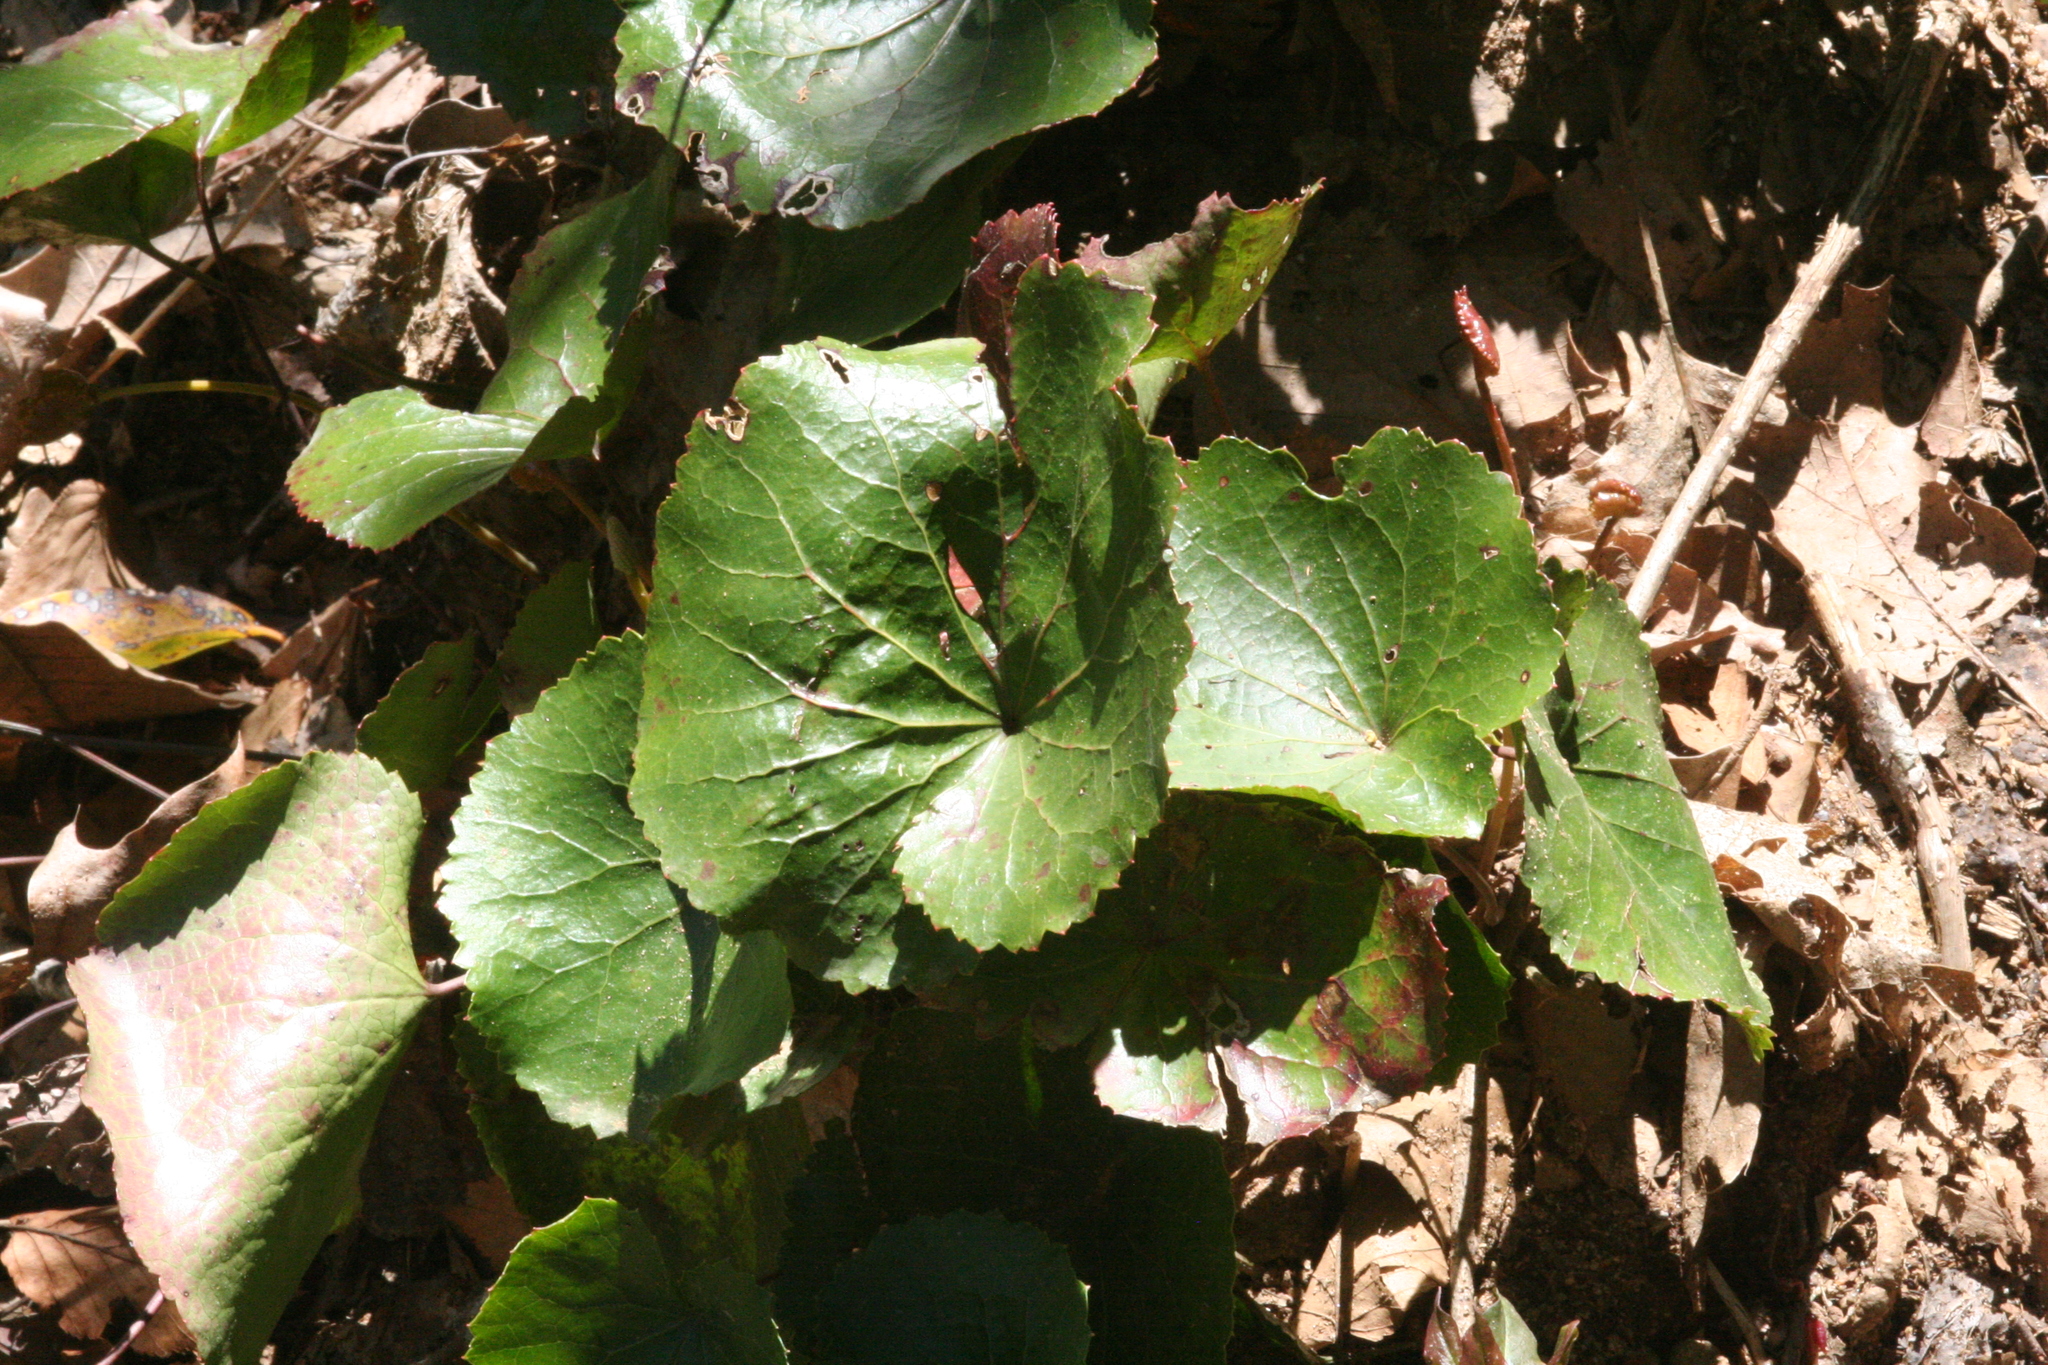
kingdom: Plantae
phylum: Tracheophyta
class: Magnoliopsida
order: Ericales
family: Diapensiaceae
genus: Galax
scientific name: Galax urceolata
